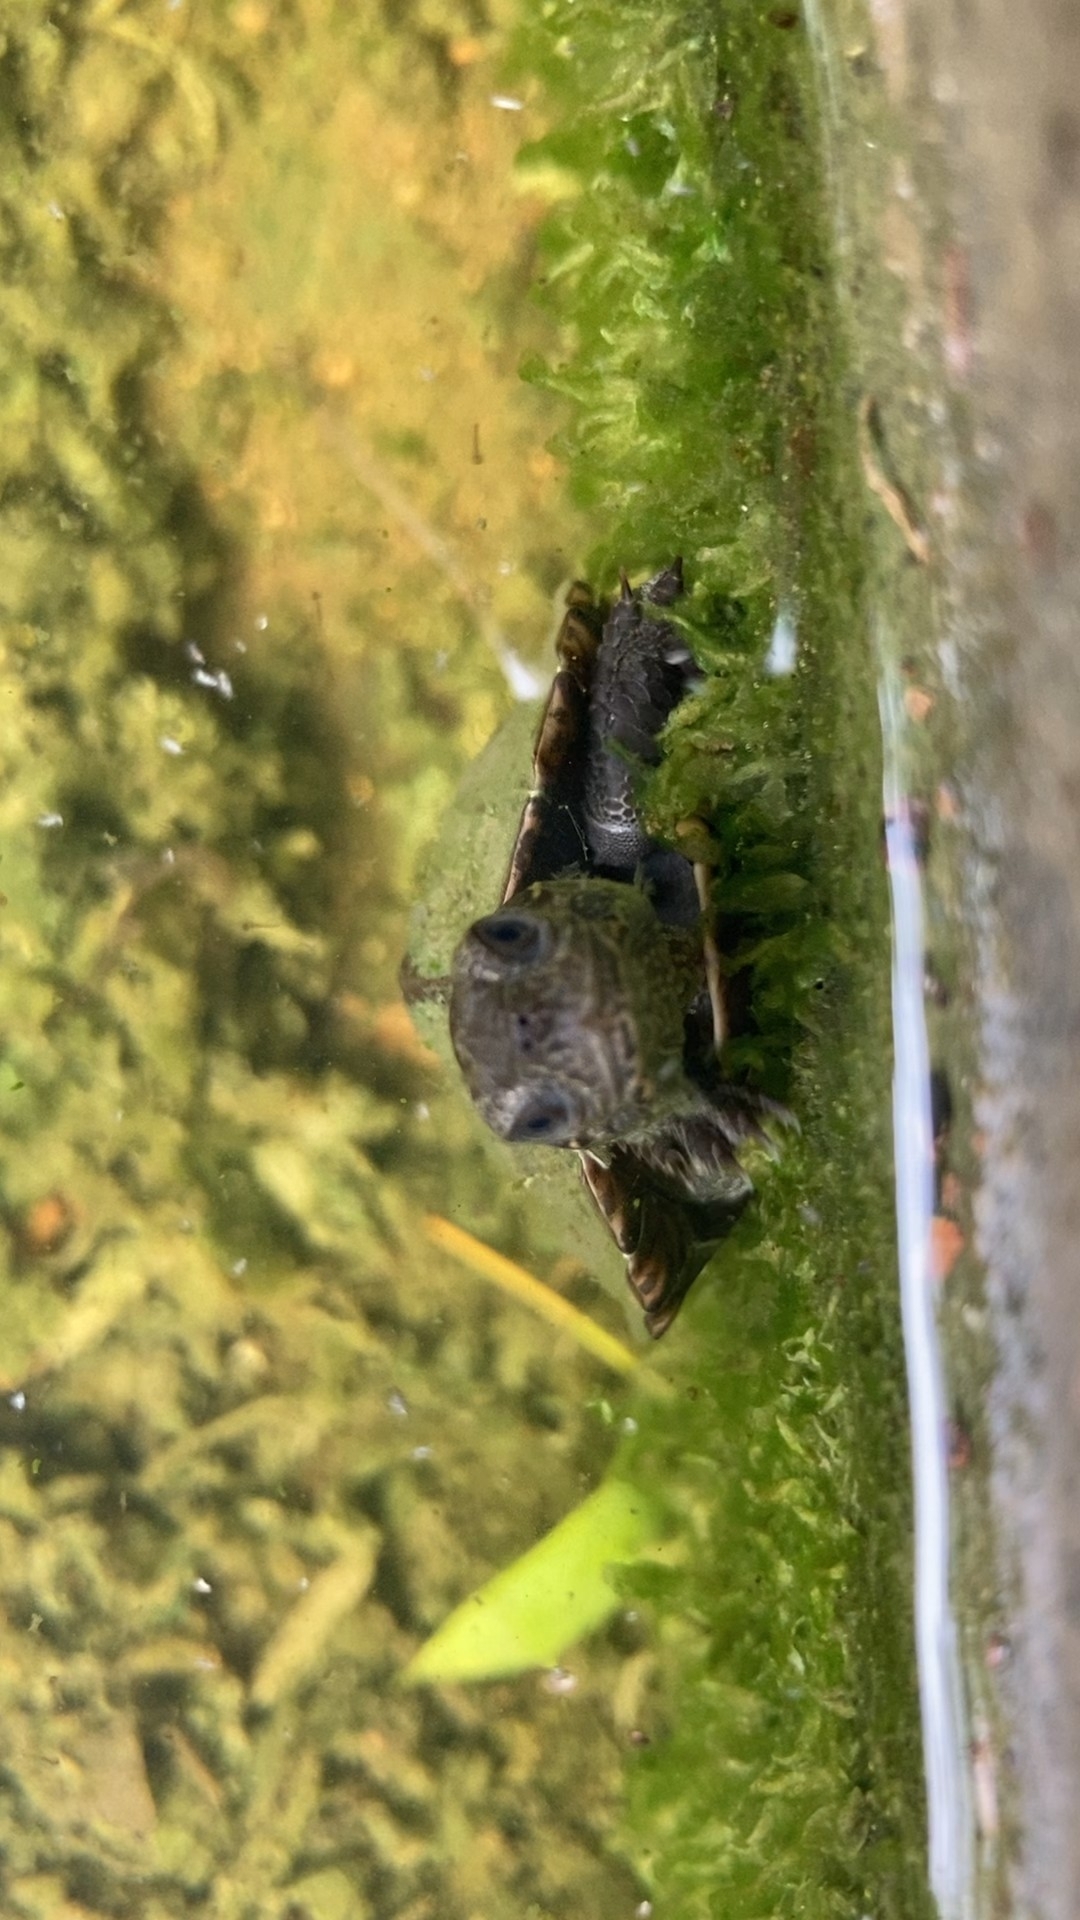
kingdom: Animalia
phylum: Chordata
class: Testudines
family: Geoemydidae
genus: Melanochelys
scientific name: Melanochelys trijuga
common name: Indian black turtle
